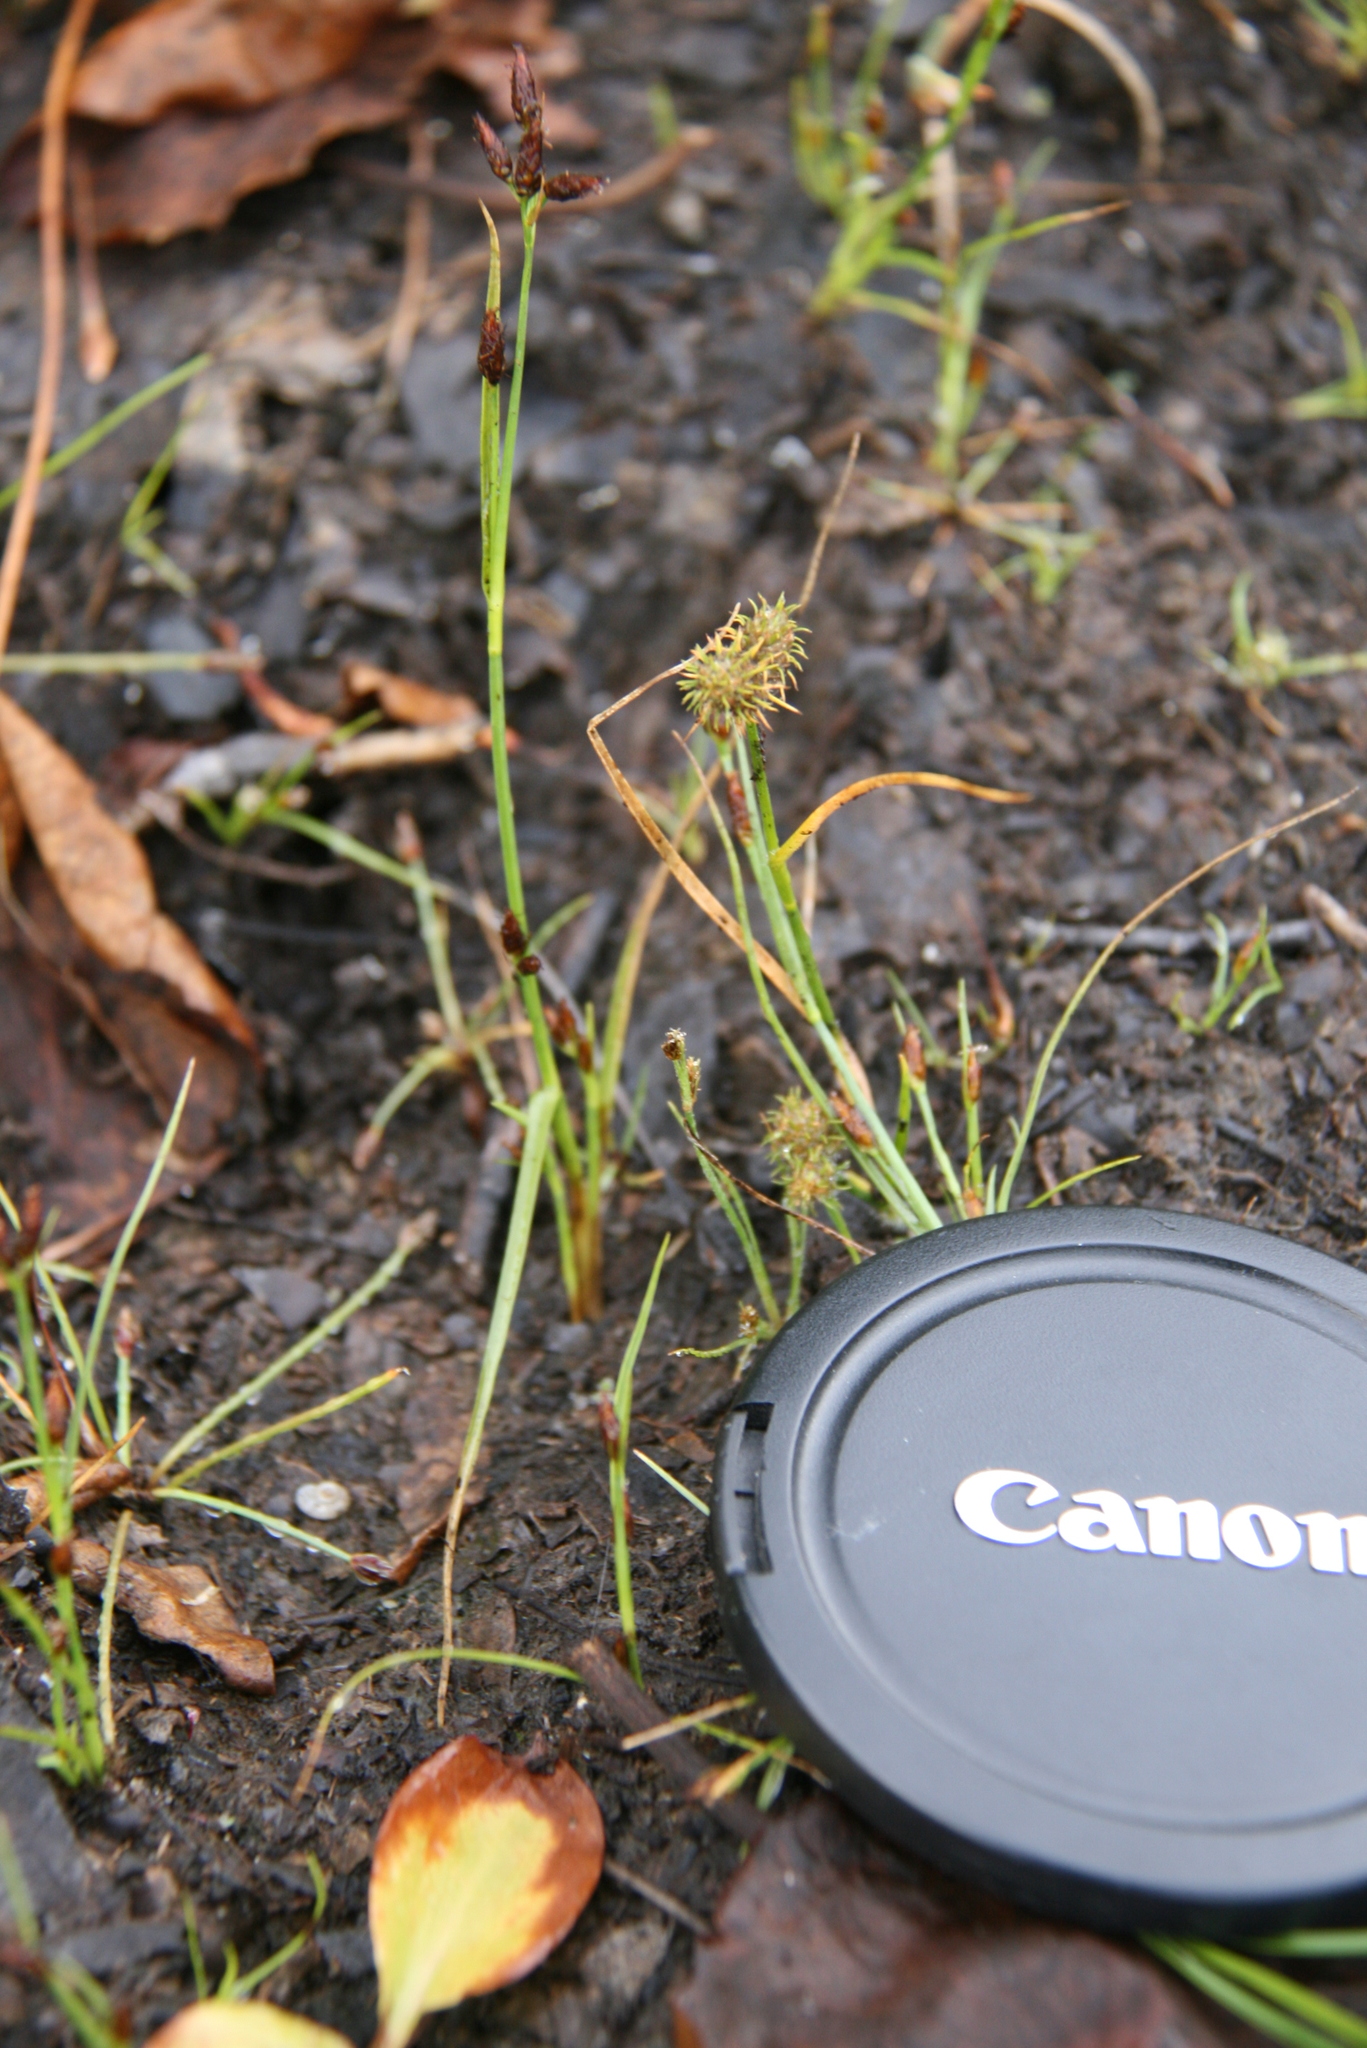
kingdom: Plantae
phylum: Tracheophyta
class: Liliopsida
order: Poales
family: Cyperaceae
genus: Fuirena
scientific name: Fuirena pumila
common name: Dwarf umbrella sedge
